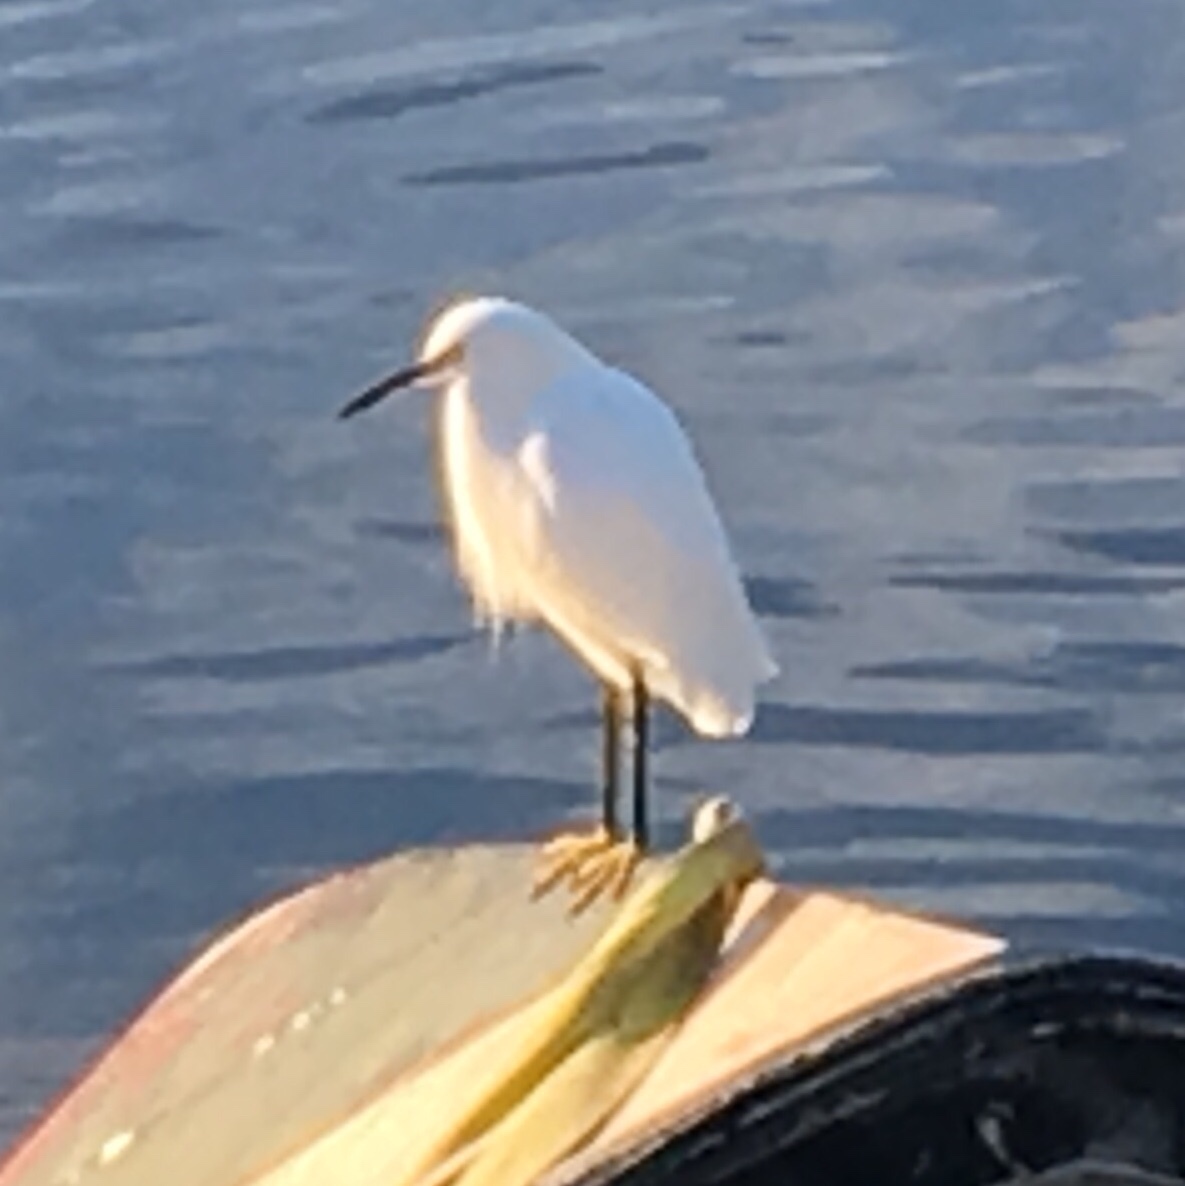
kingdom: Animalia
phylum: Chordata
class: Aves
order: Pelecaniformes
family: Ardeidae
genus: Egretta
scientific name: Egretta thula
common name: Snowy egret
